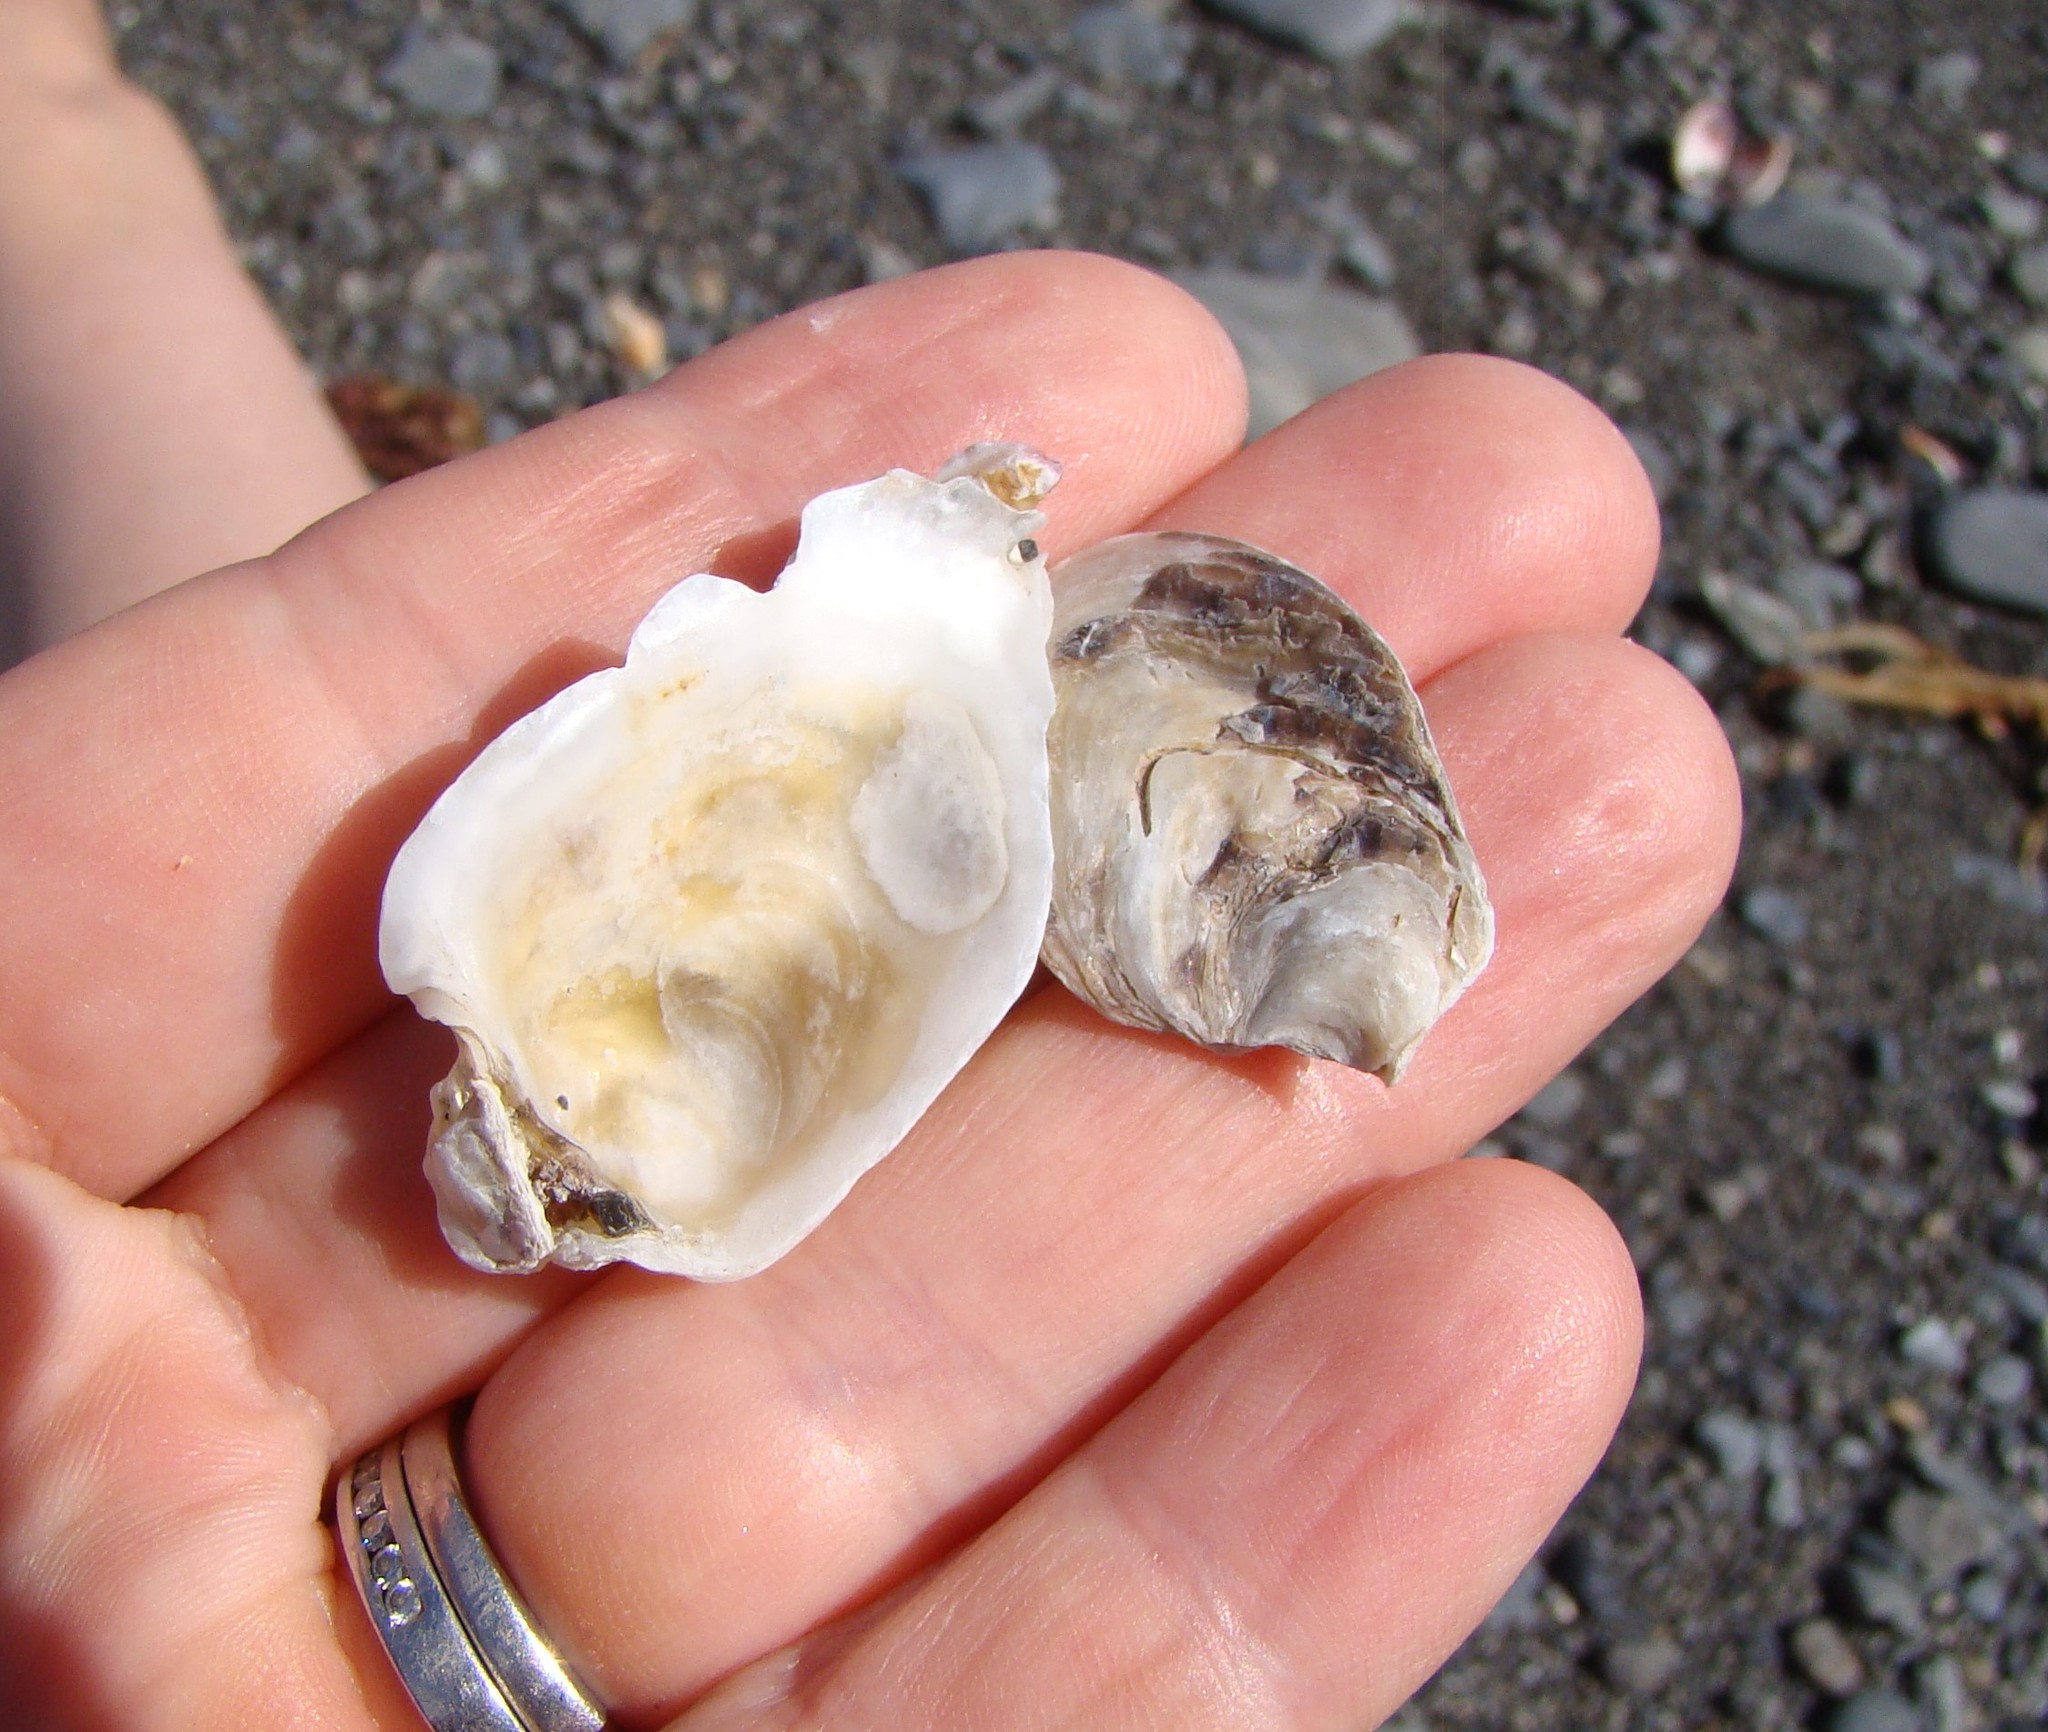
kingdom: Animalia
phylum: Mollusca
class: Bivalvia
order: Ostreida
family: Ostreidae
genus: Ostrea
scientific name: Ostrea chilensis
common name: Chilean oyster
